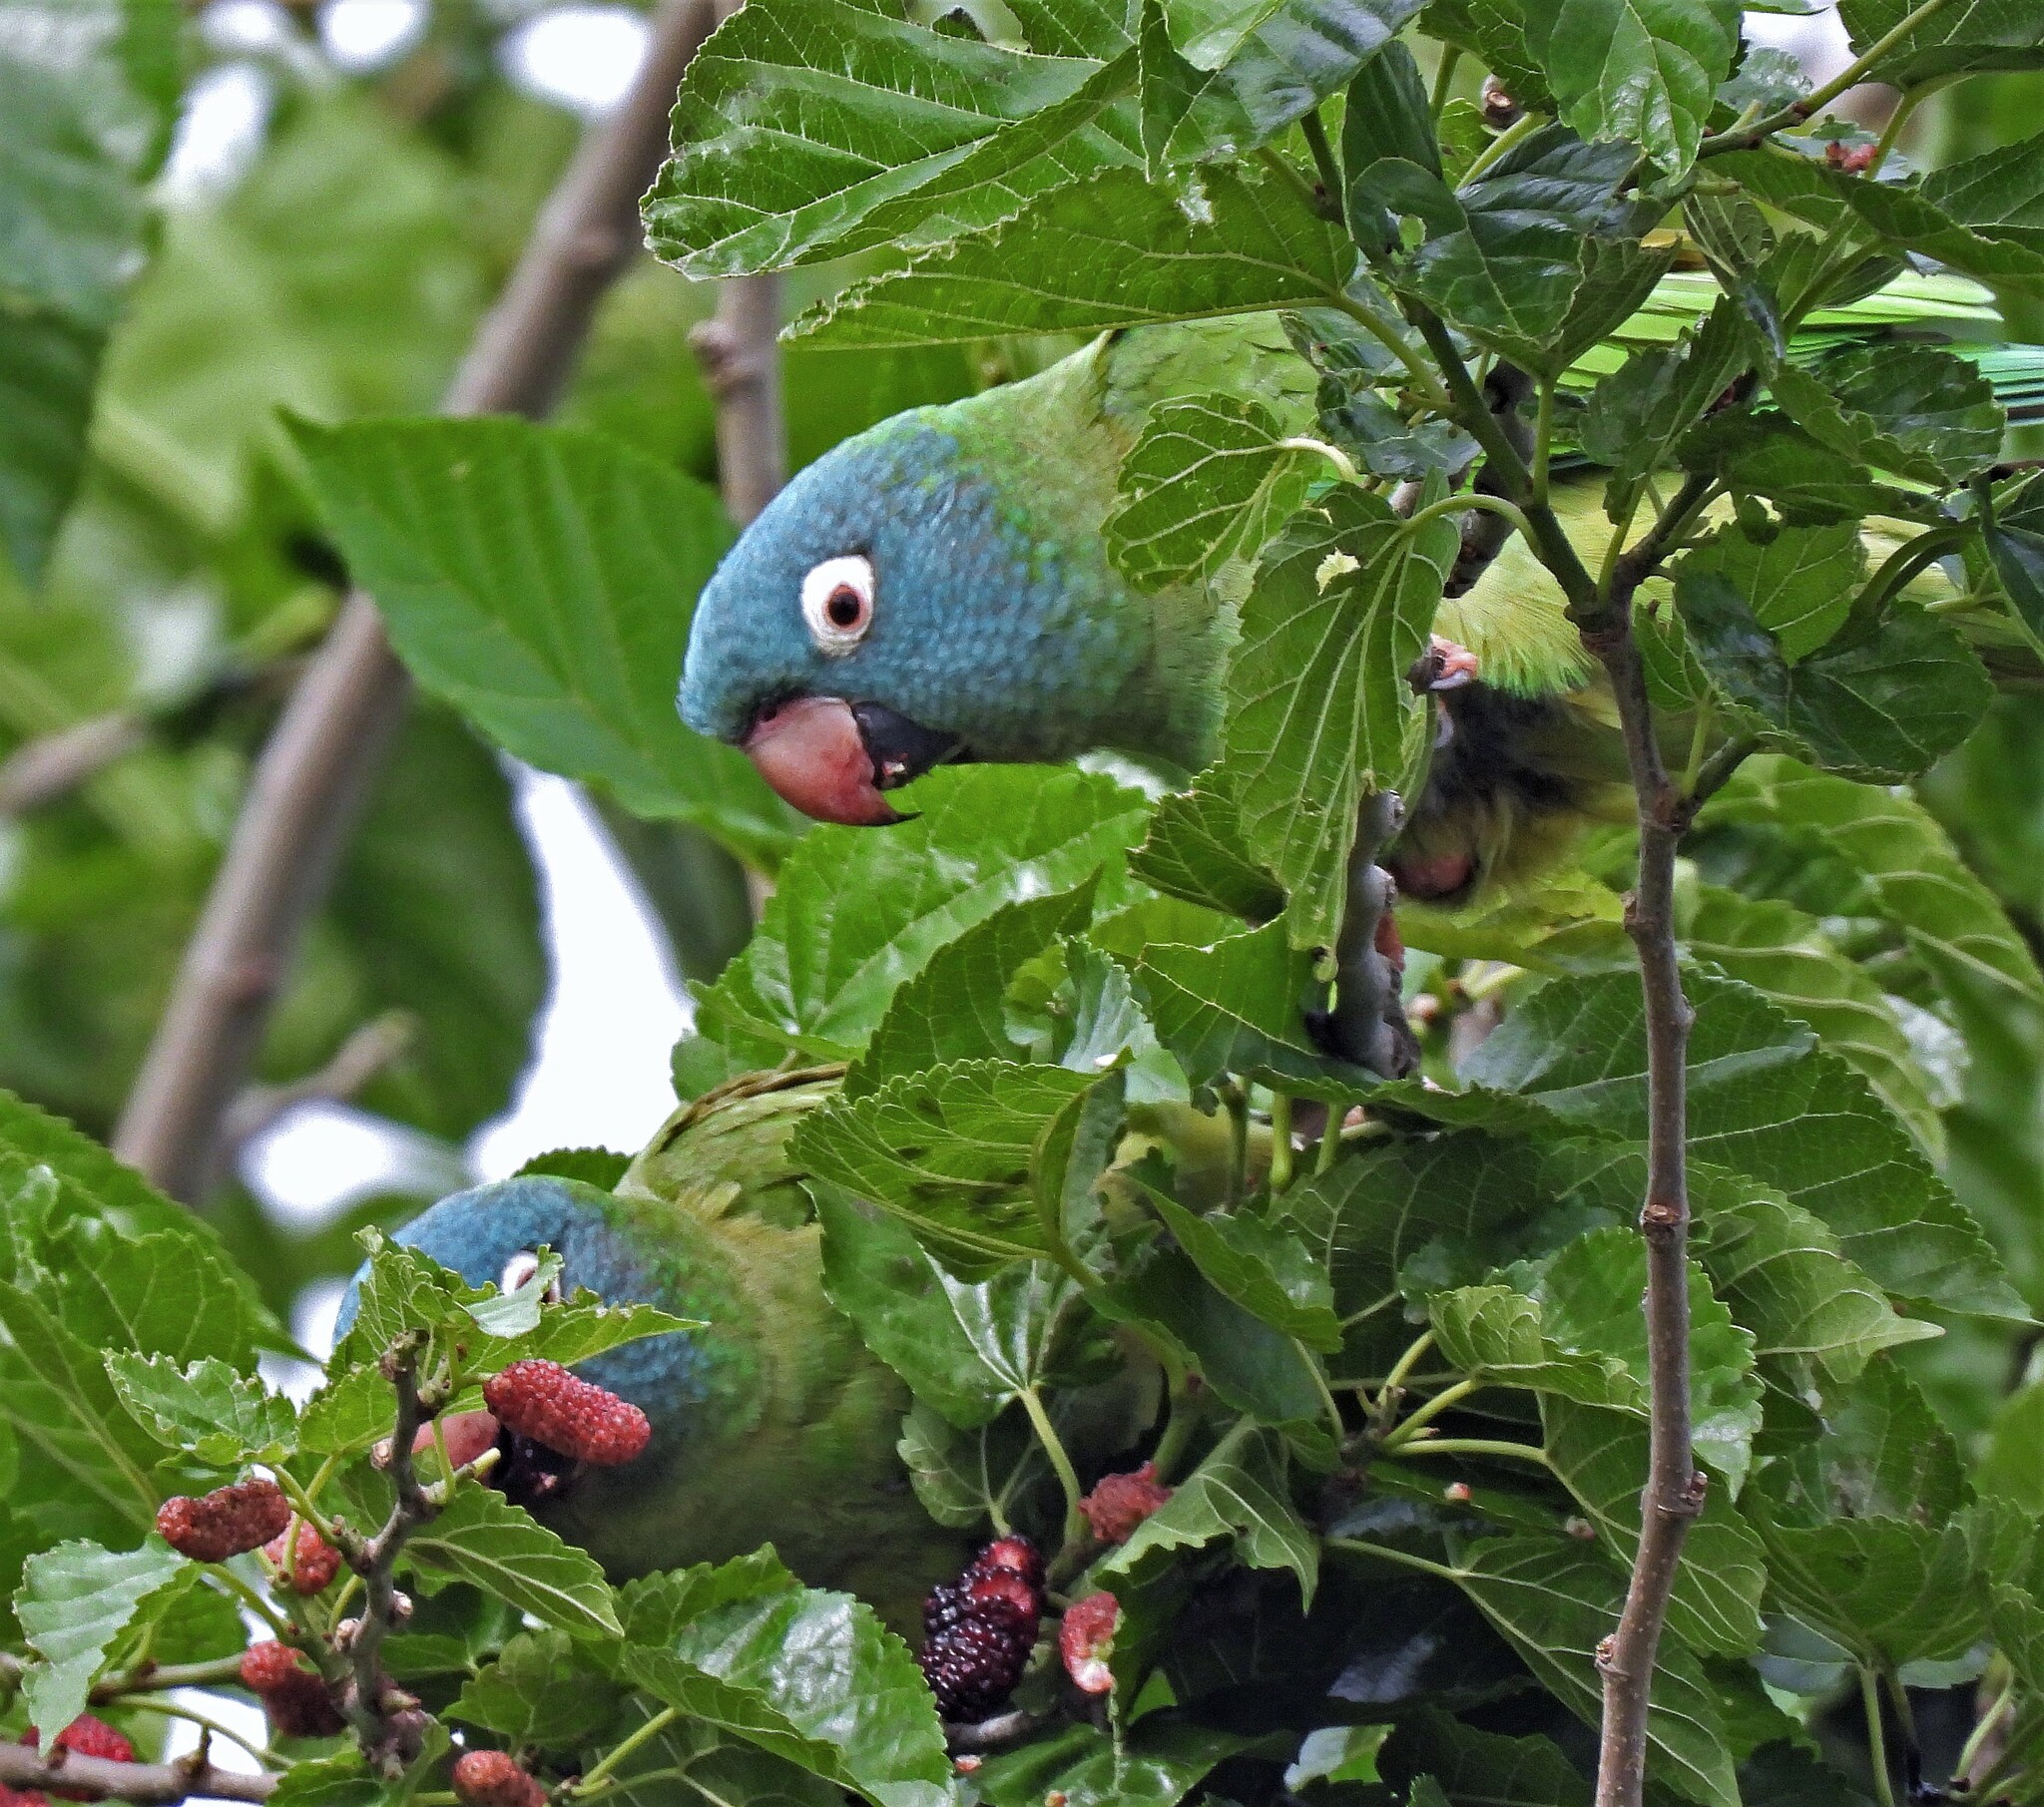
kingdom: Animalia
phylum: Chordata
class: Aves
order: Psittaciformes
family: Psittacidae
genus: Aratinga
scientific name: Aratinga acuticaudata
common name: Blue-crowned parakeet
